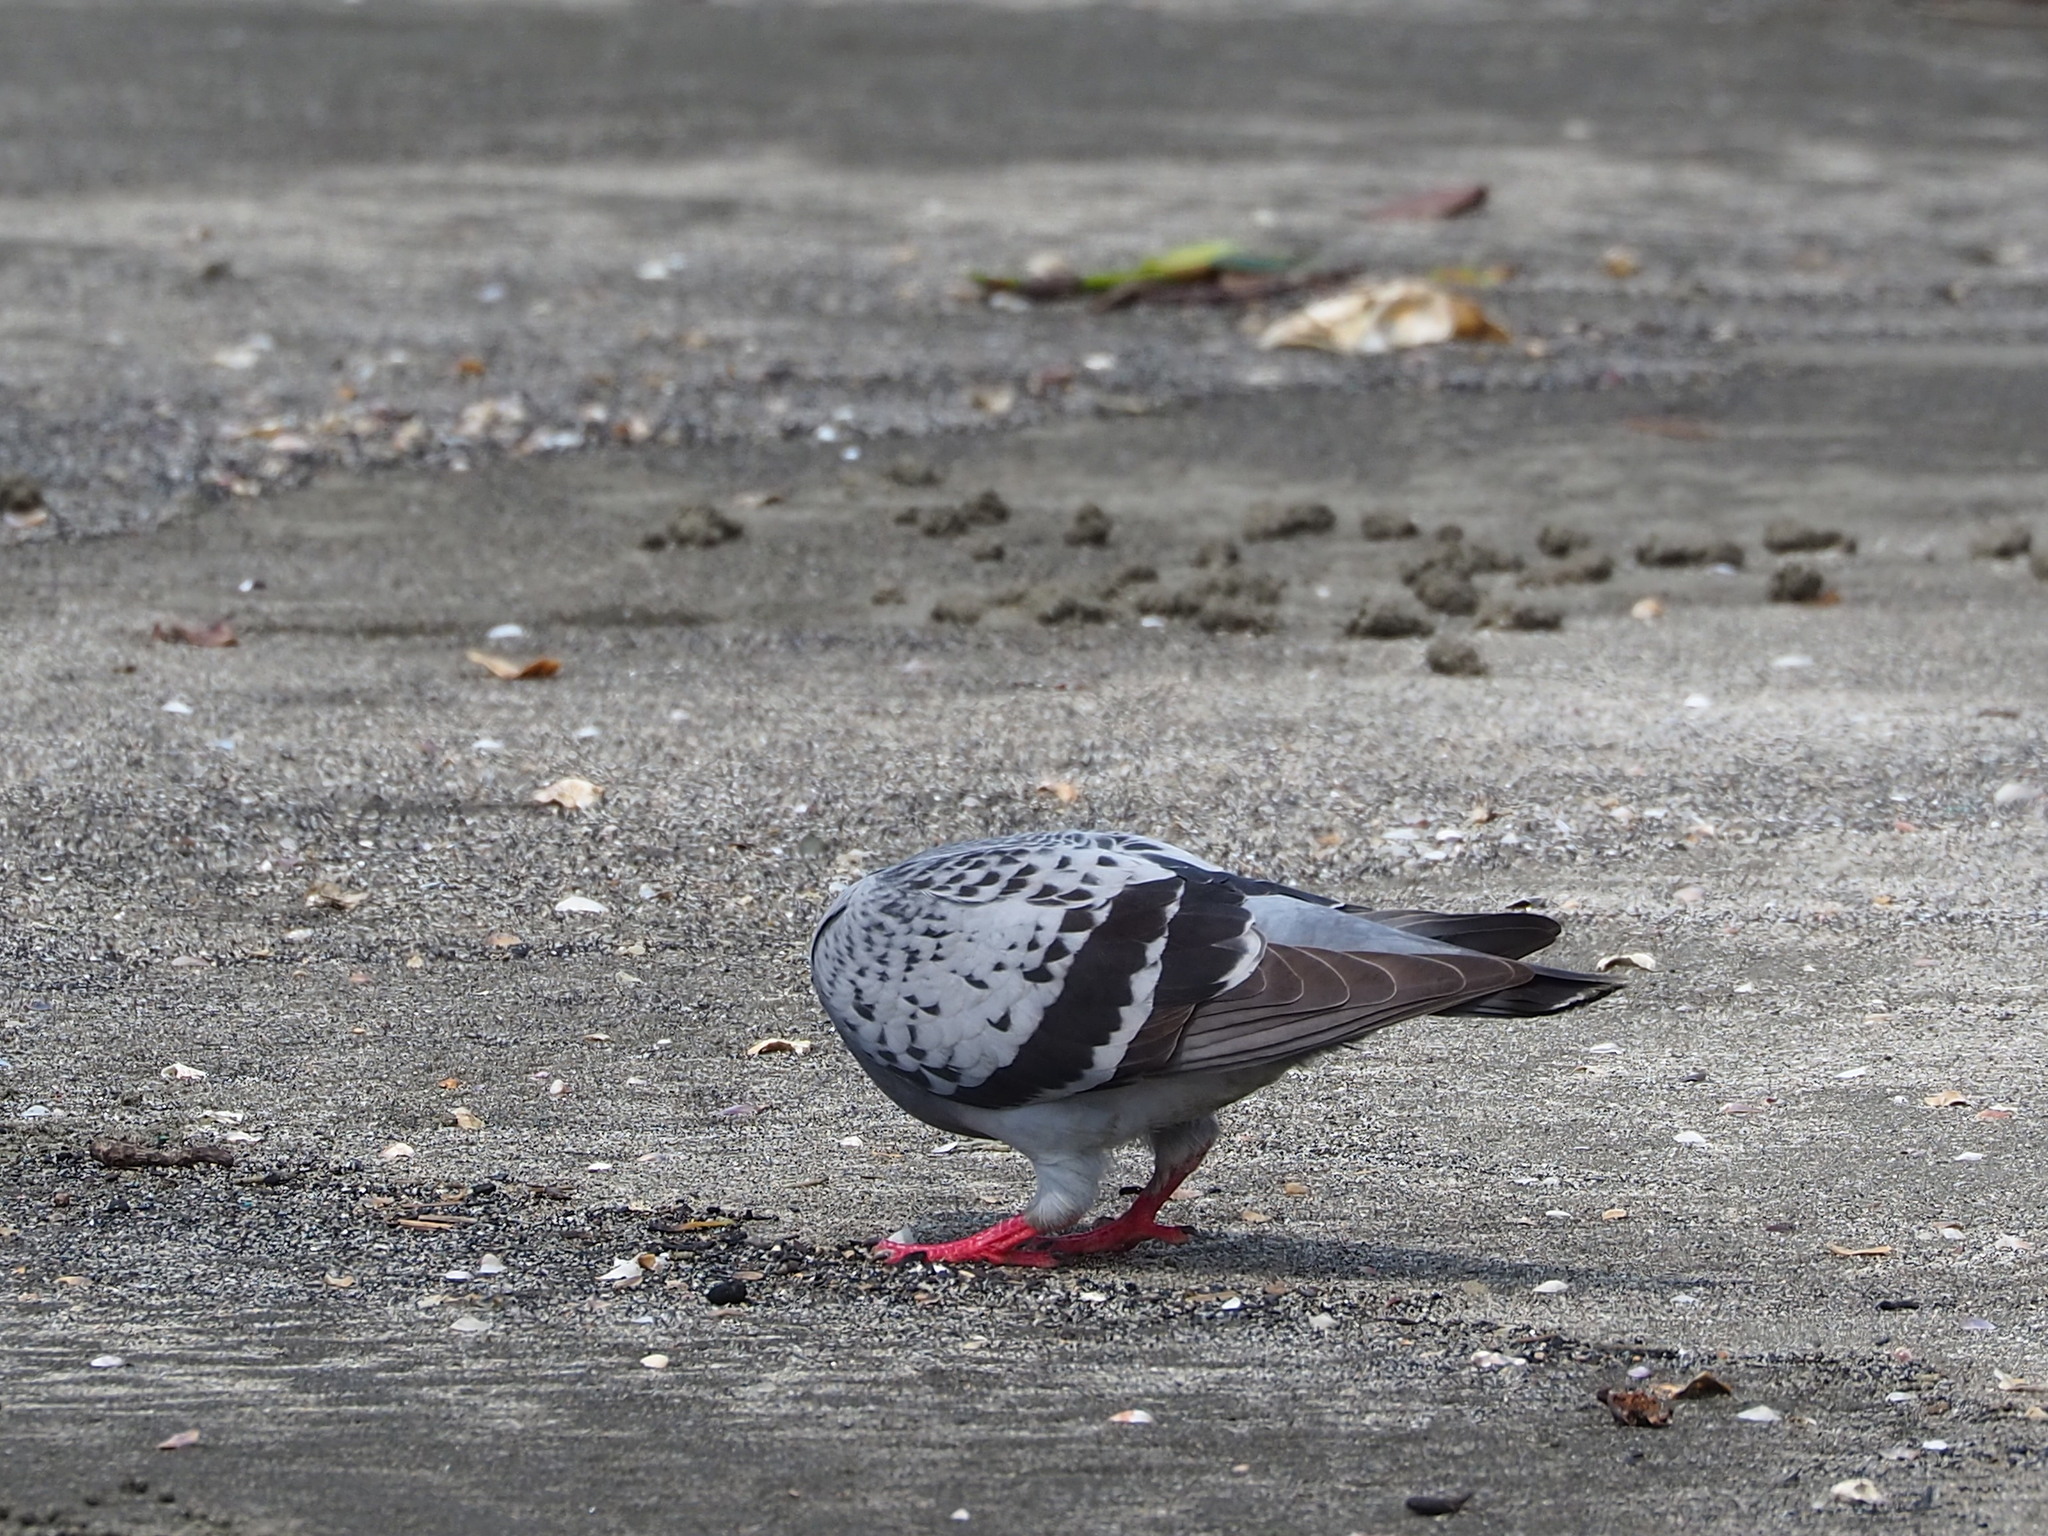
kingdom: Animalia
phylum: Chordata
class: Aves
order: Columbiformes
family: Columbidae
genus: Columba
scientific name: Columba livia
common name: Rock pigeon
